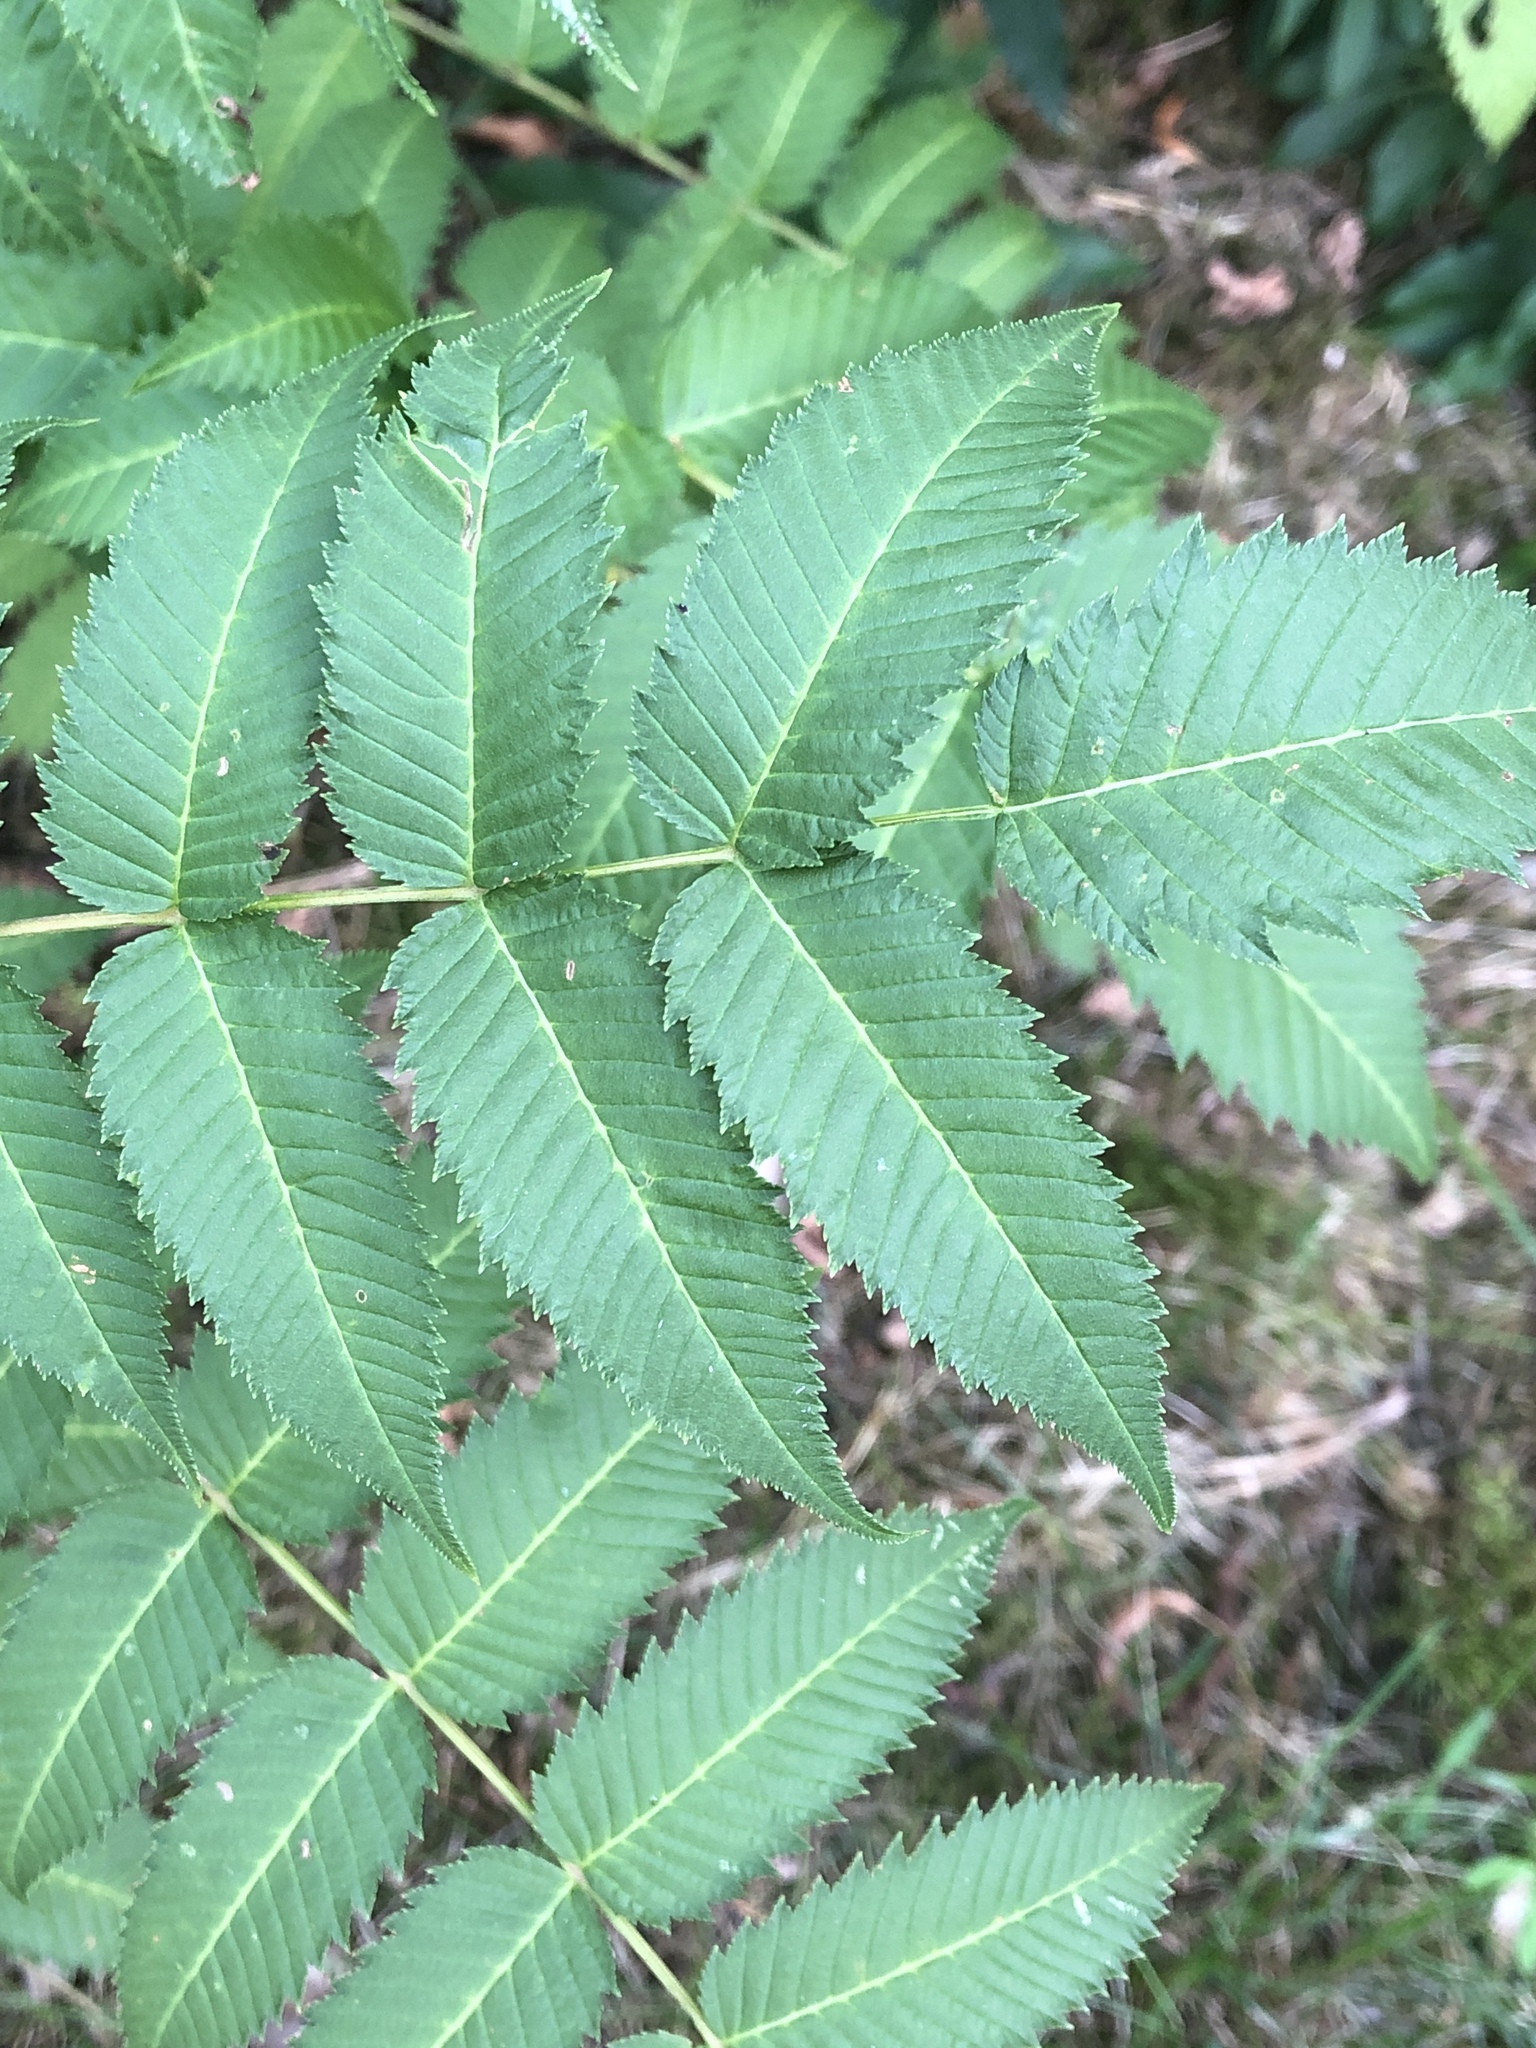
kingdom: Plantae
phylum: Tracheophyta
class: Magnoliopsida
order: Rosales
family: Rosaceae
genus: Sorbaria
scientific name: Sorbaria sorbifolia
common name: False spiraea
